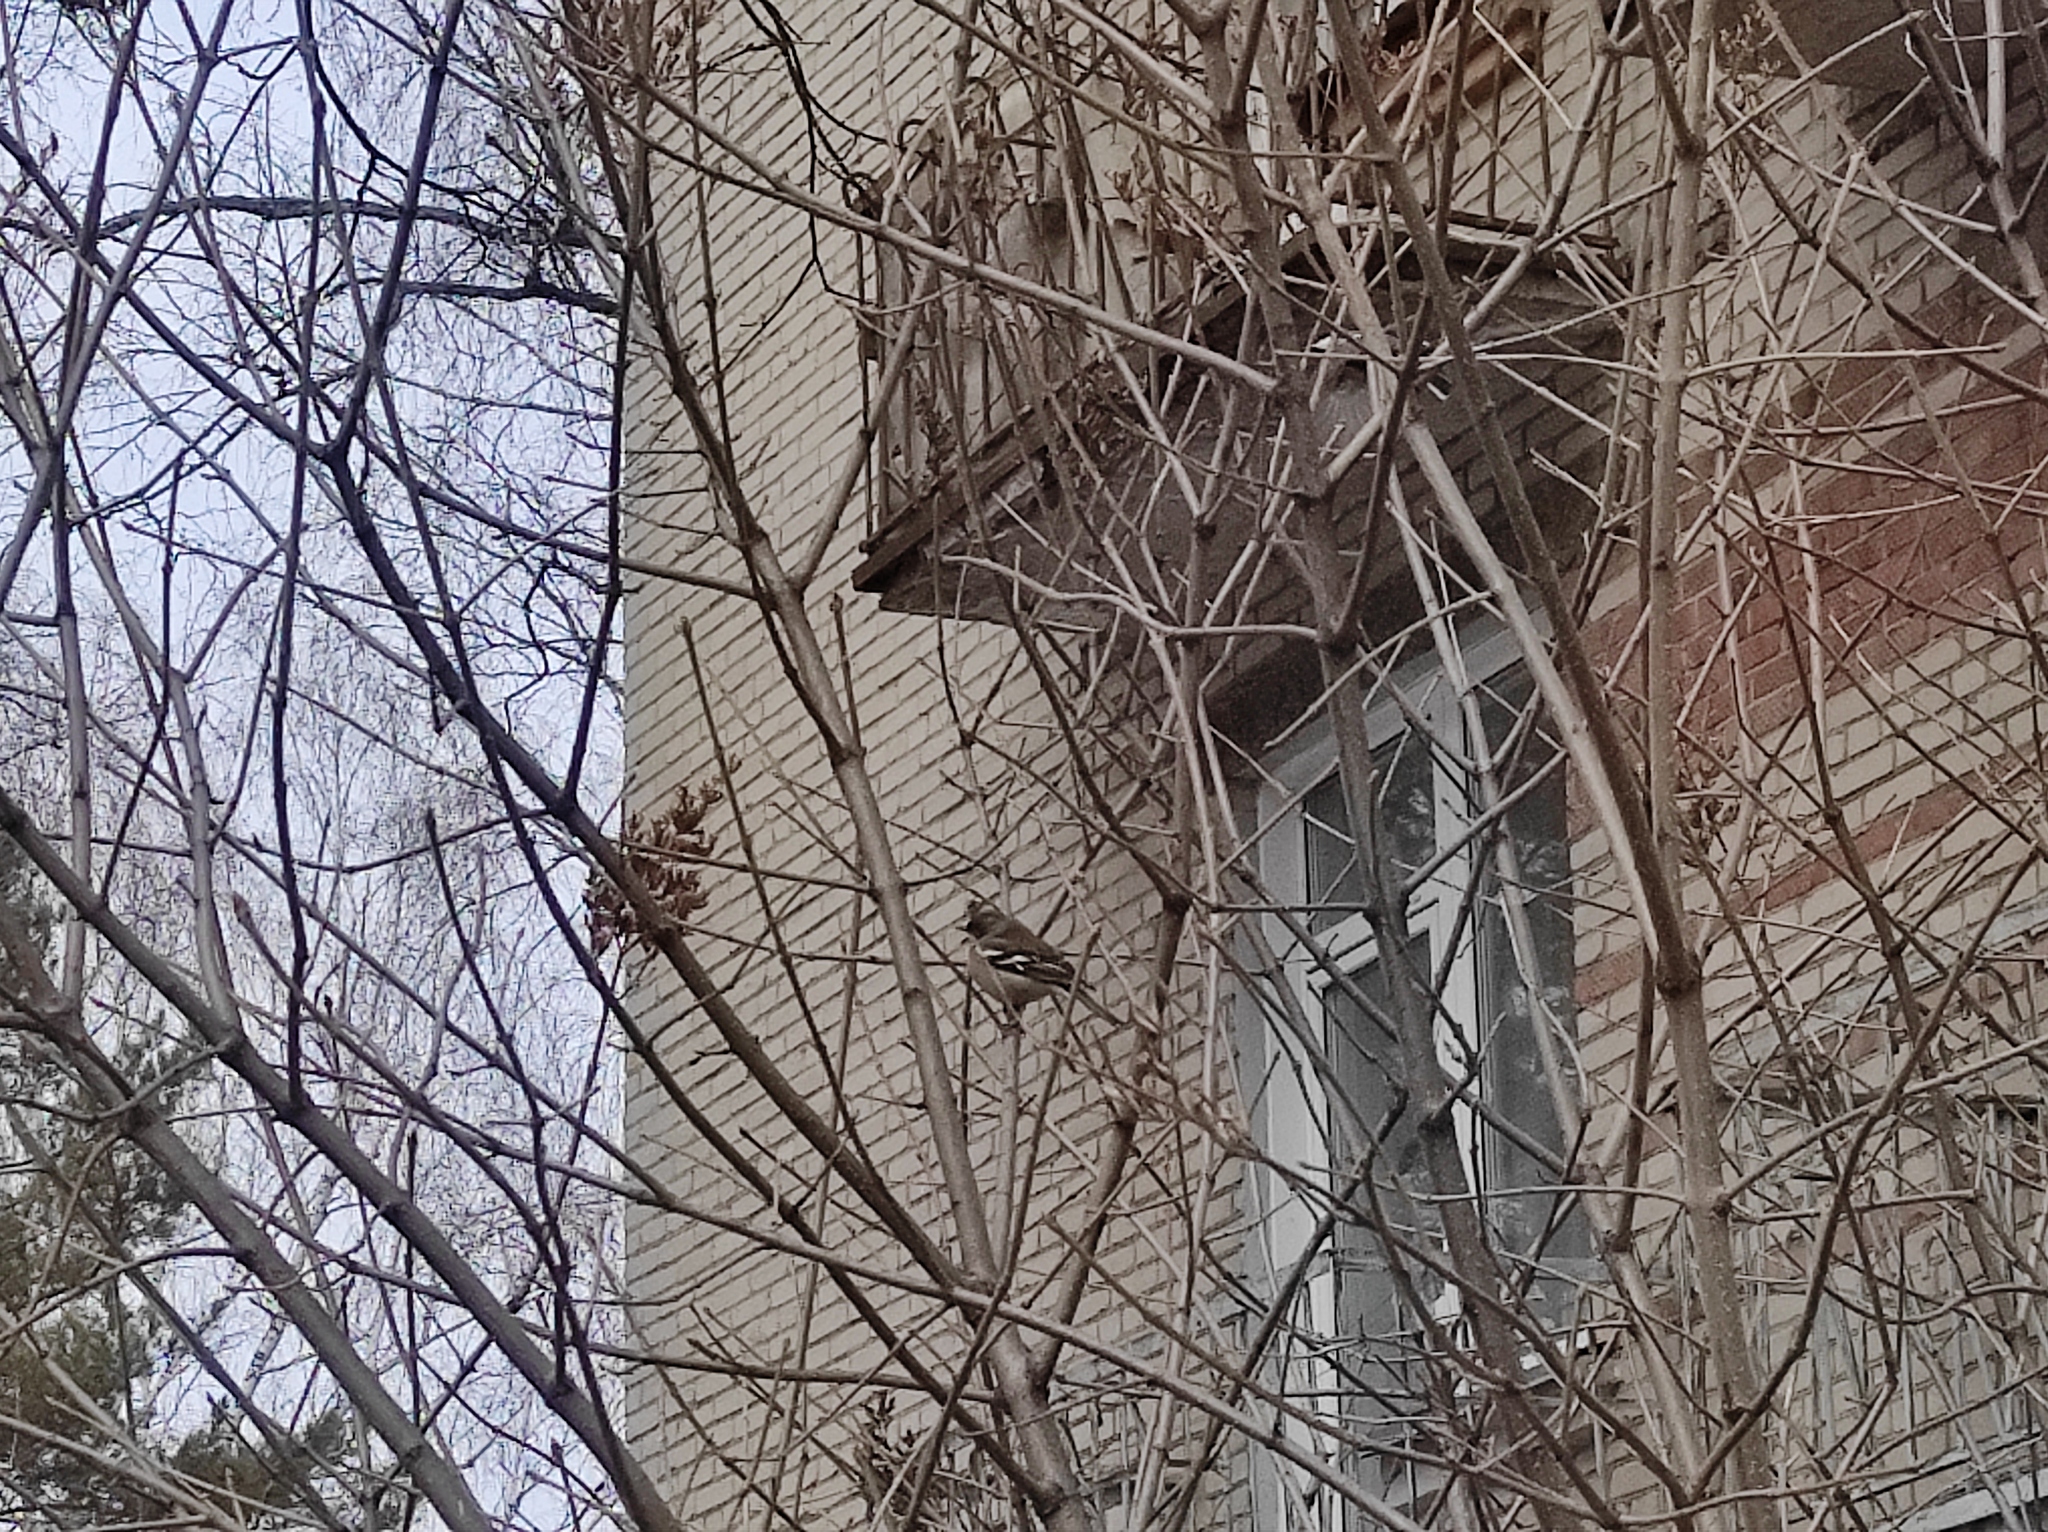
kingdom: Animalia
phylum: Chordata
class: Aves
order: Passeriformes
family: Fringillidae
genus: Fringilla
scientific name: Fringilla coelebs
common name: Common chaffinch
